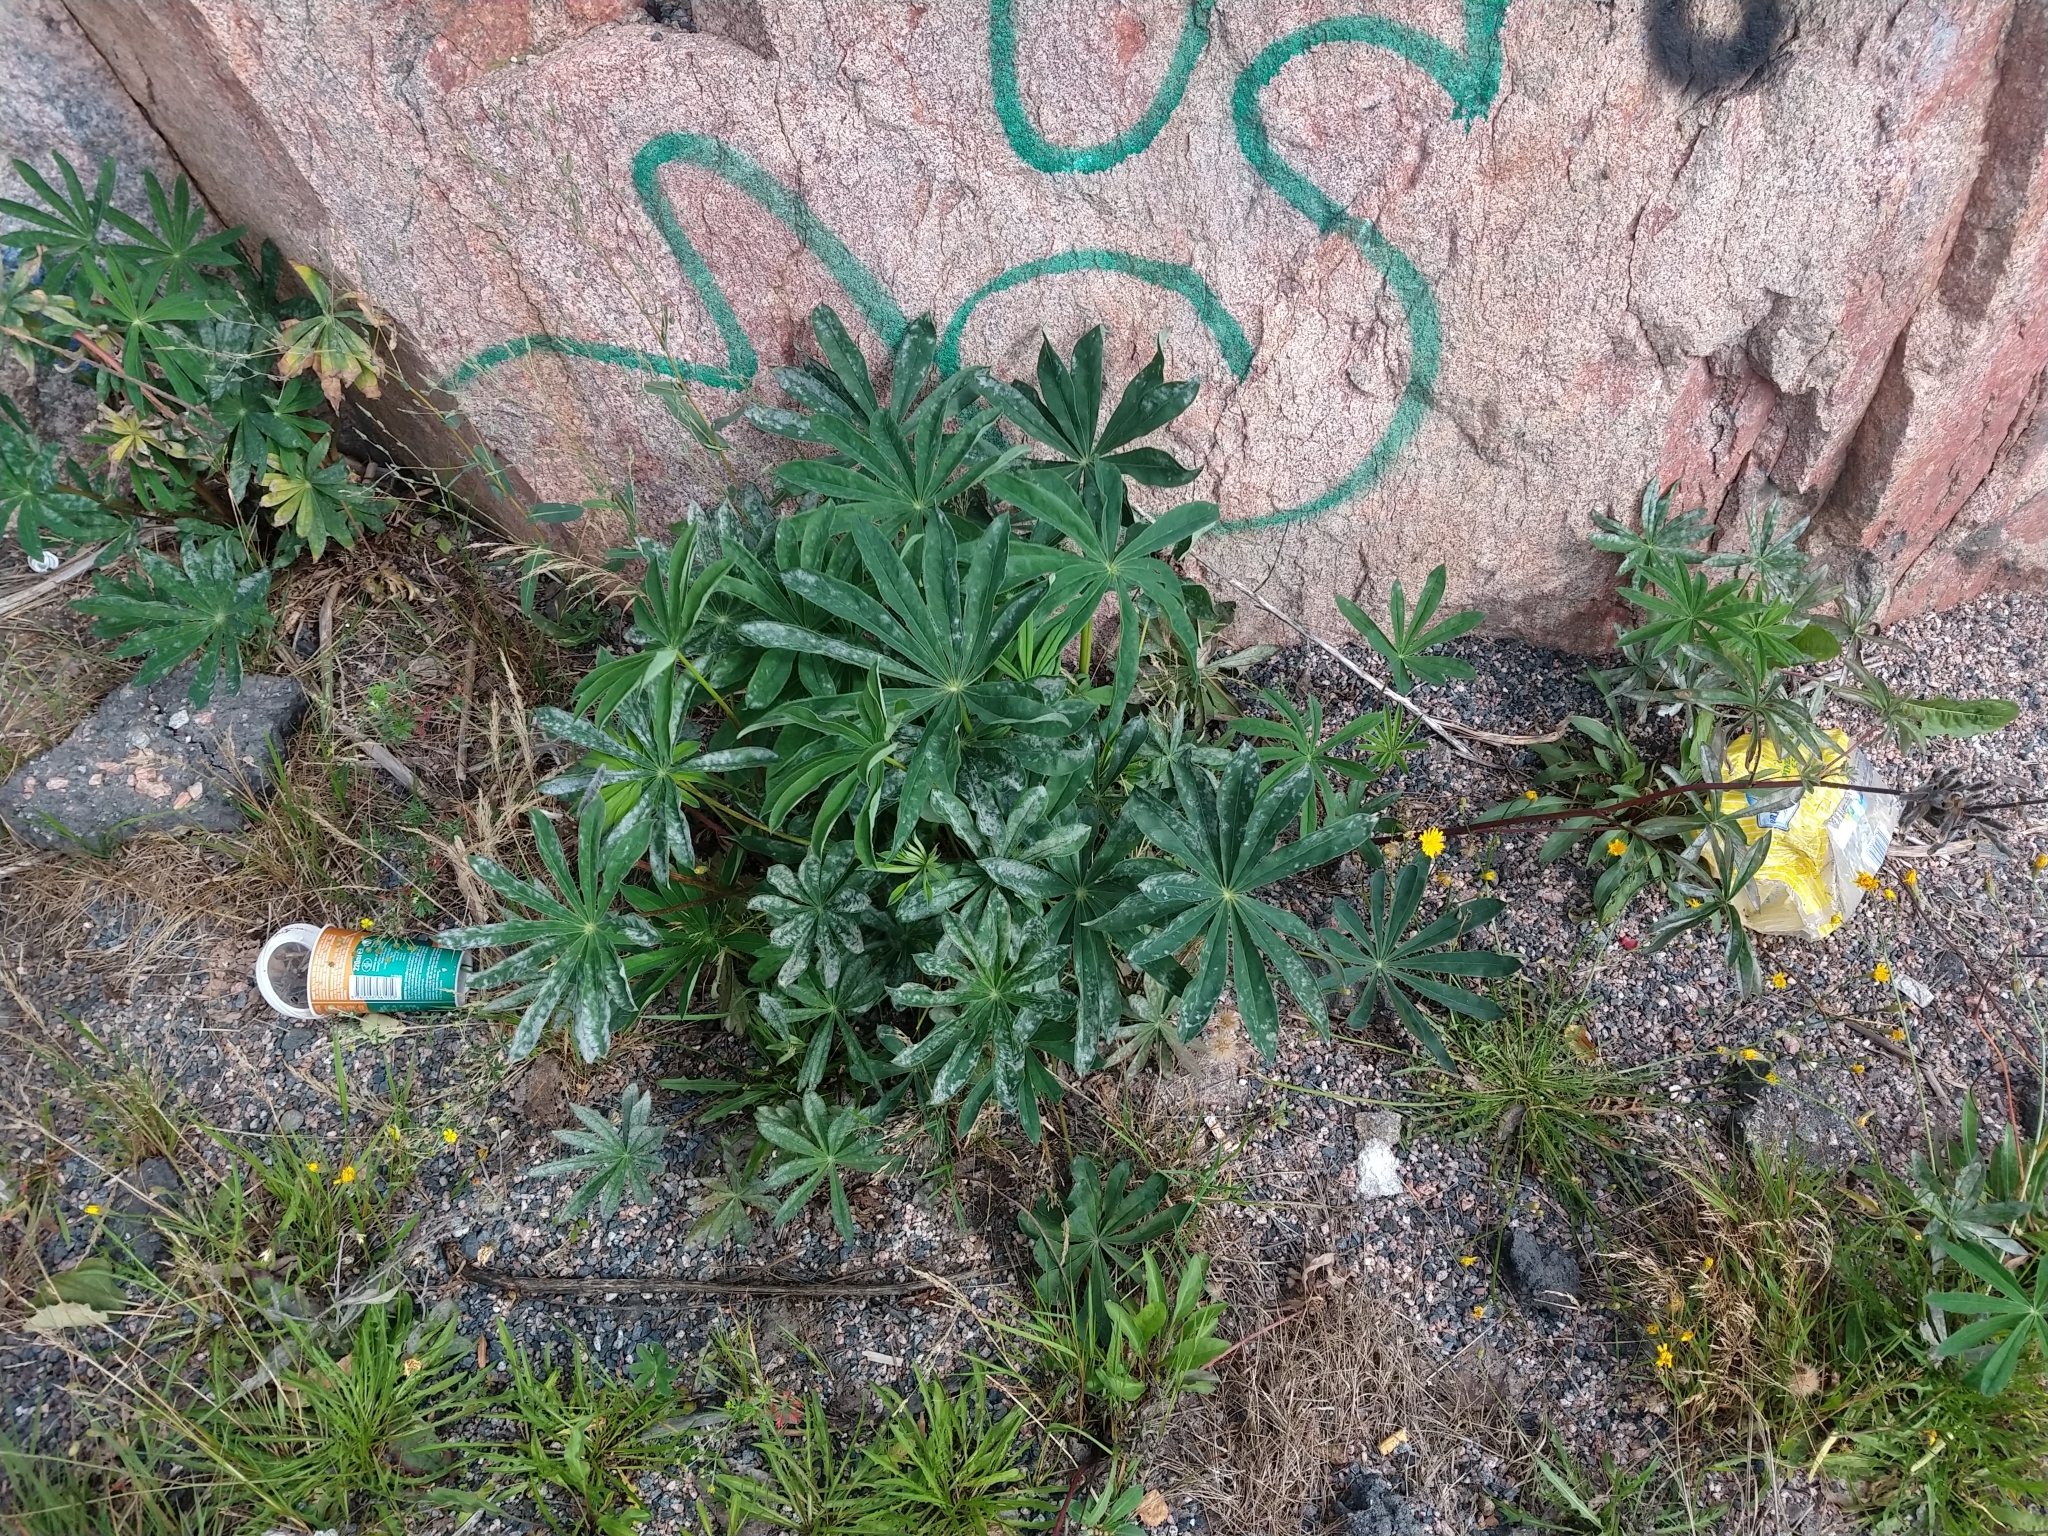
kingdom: Plantae
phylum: Tracheophyta
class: Magnoliopsida
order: Fabales
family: Fabaceae
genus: Lupinus
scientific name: Lupinus polyphyllus
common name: Garden lupin
